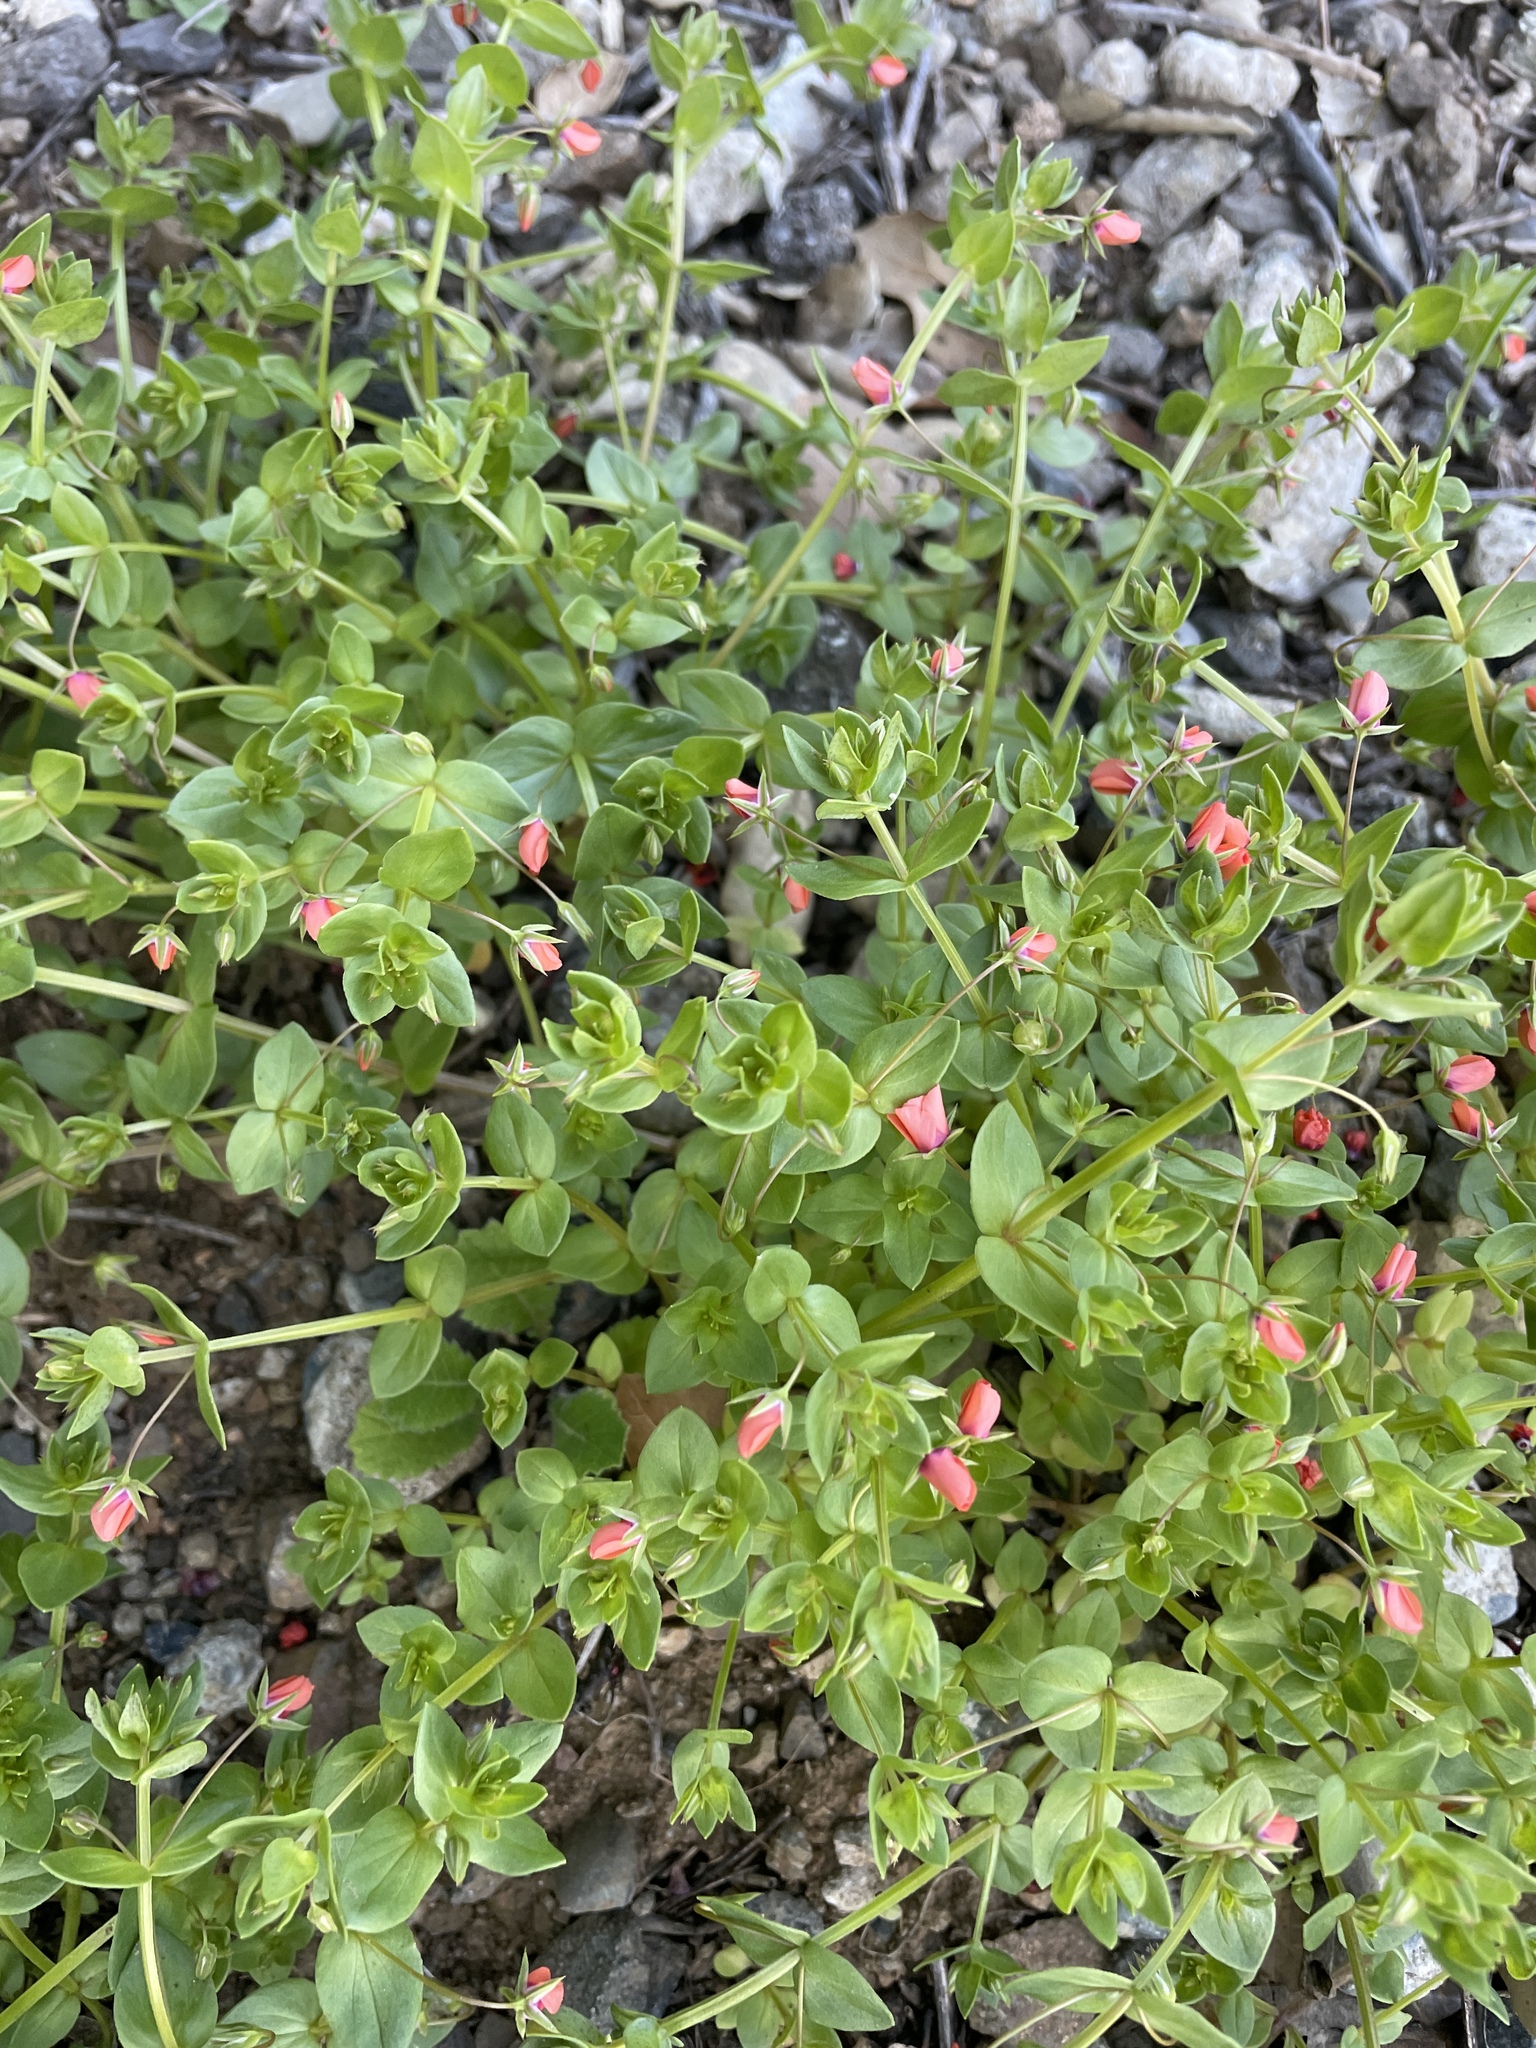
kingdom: Plantae
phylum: Tracheophyta
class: Magnoliopsida
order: Ericales
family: Primulaceae
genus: Lysimachia
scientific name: Lysimachia arvensis
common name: Scarlet pimpernel
